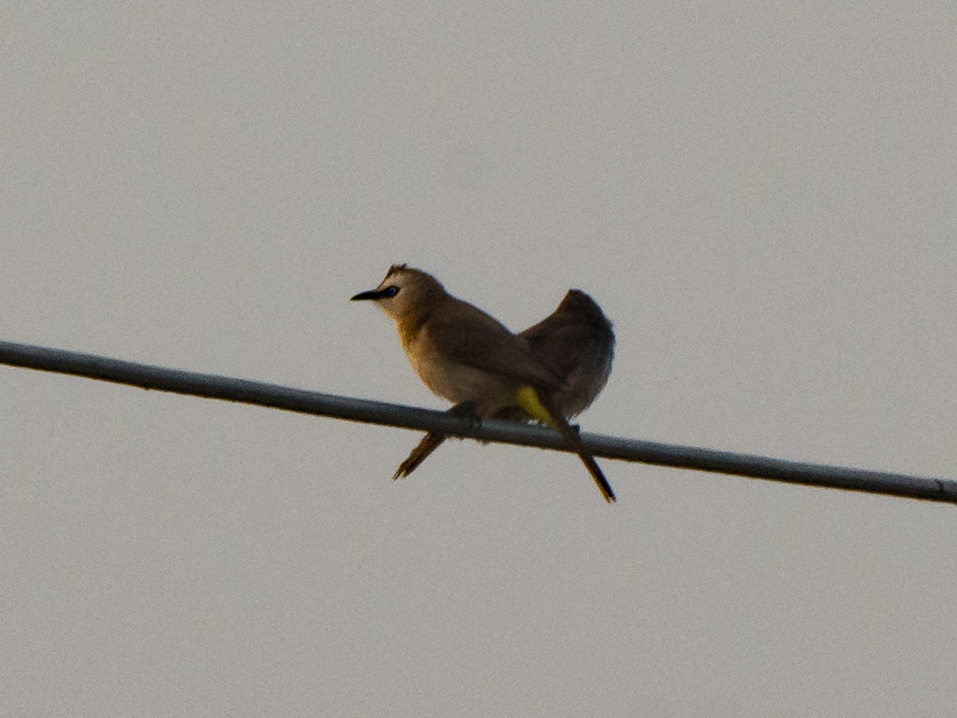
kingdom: Animalia
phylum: Chordata
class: Aves
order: Passeriformes
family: Pycnonotidae
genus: Pycnonotus
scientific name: Pycnonotus goiavier
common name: Yellow-vented bulbul
